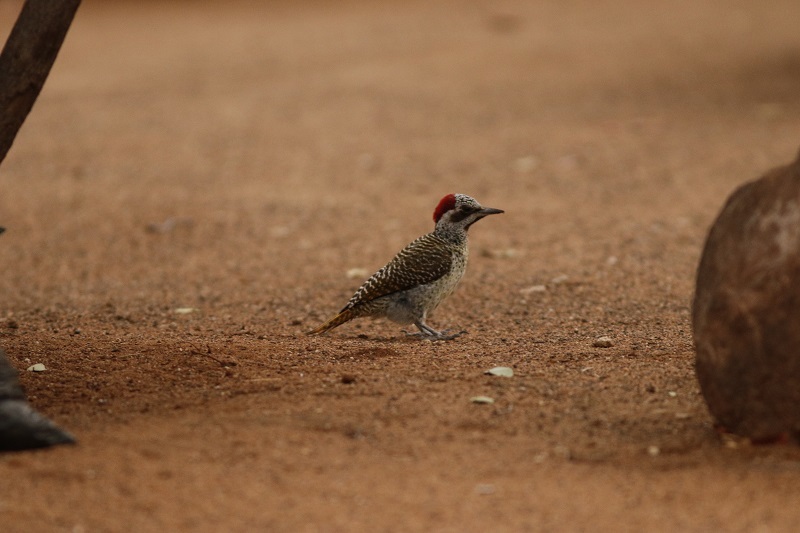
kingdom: Animalia
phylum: Chordata
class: Aves
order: Piciformes
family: Picidae
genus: Campethera
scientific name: Campethera bennettii
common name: Bennett's woodpecker
